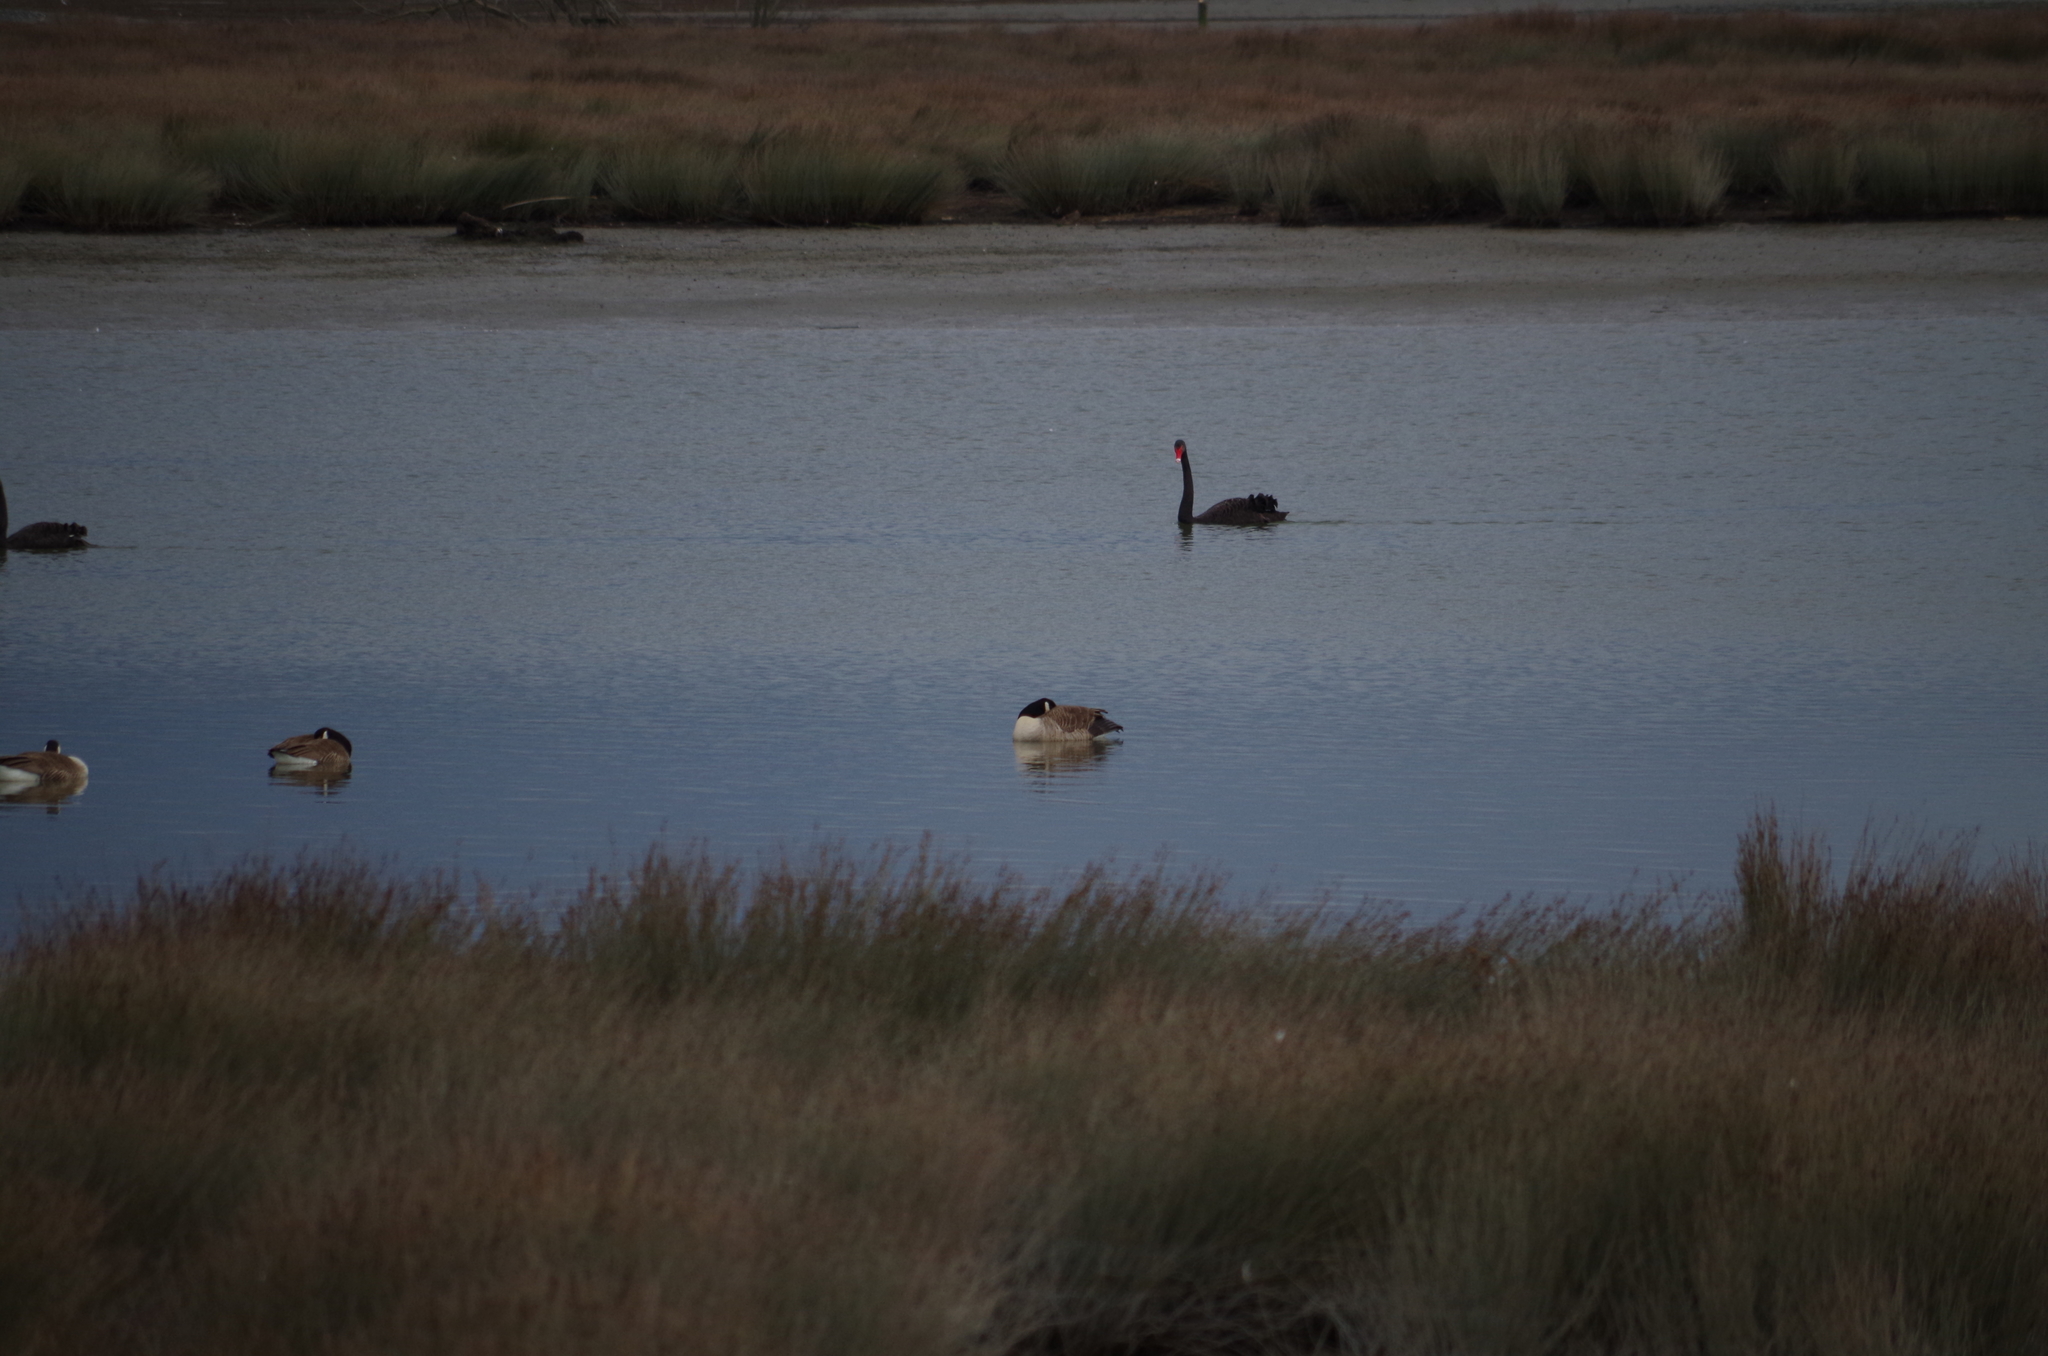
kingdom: Animalia
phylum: Chordata
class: Aves
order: Anseriformes
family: Anatidae
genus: Branta
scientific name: Branta canadensis
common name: Canada goose
